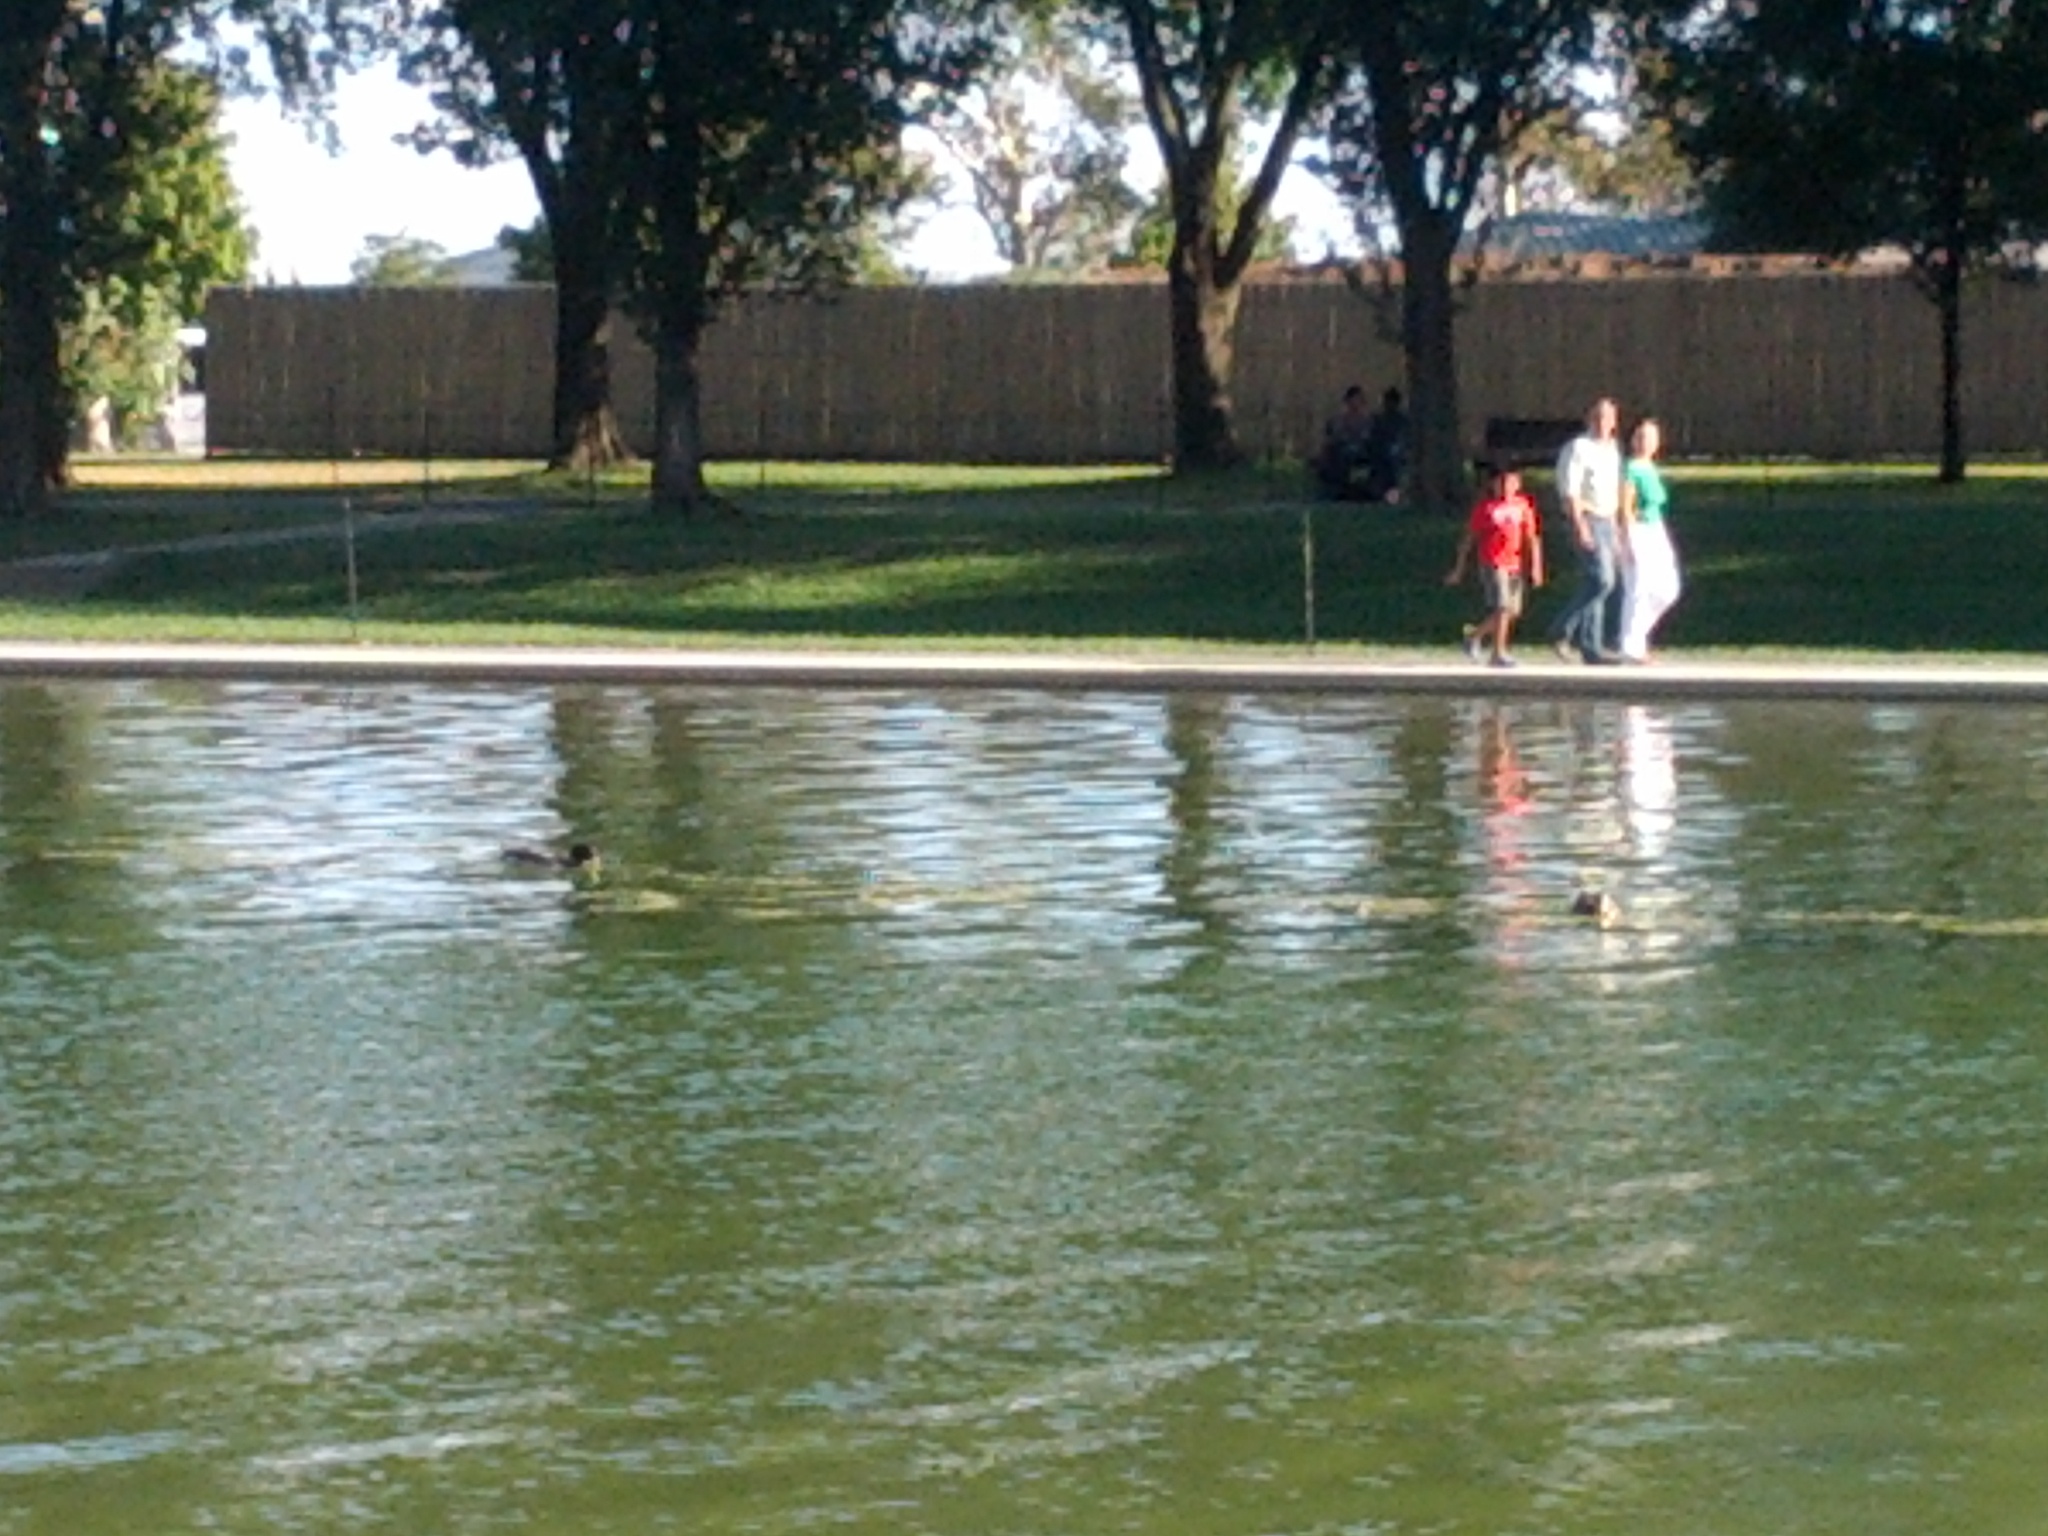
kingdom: Animalia
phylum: Chordata
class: Aves
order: Anseriformes
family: Anatidae
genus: Anas
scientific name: Anas platyrhynchos
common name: Mallard
